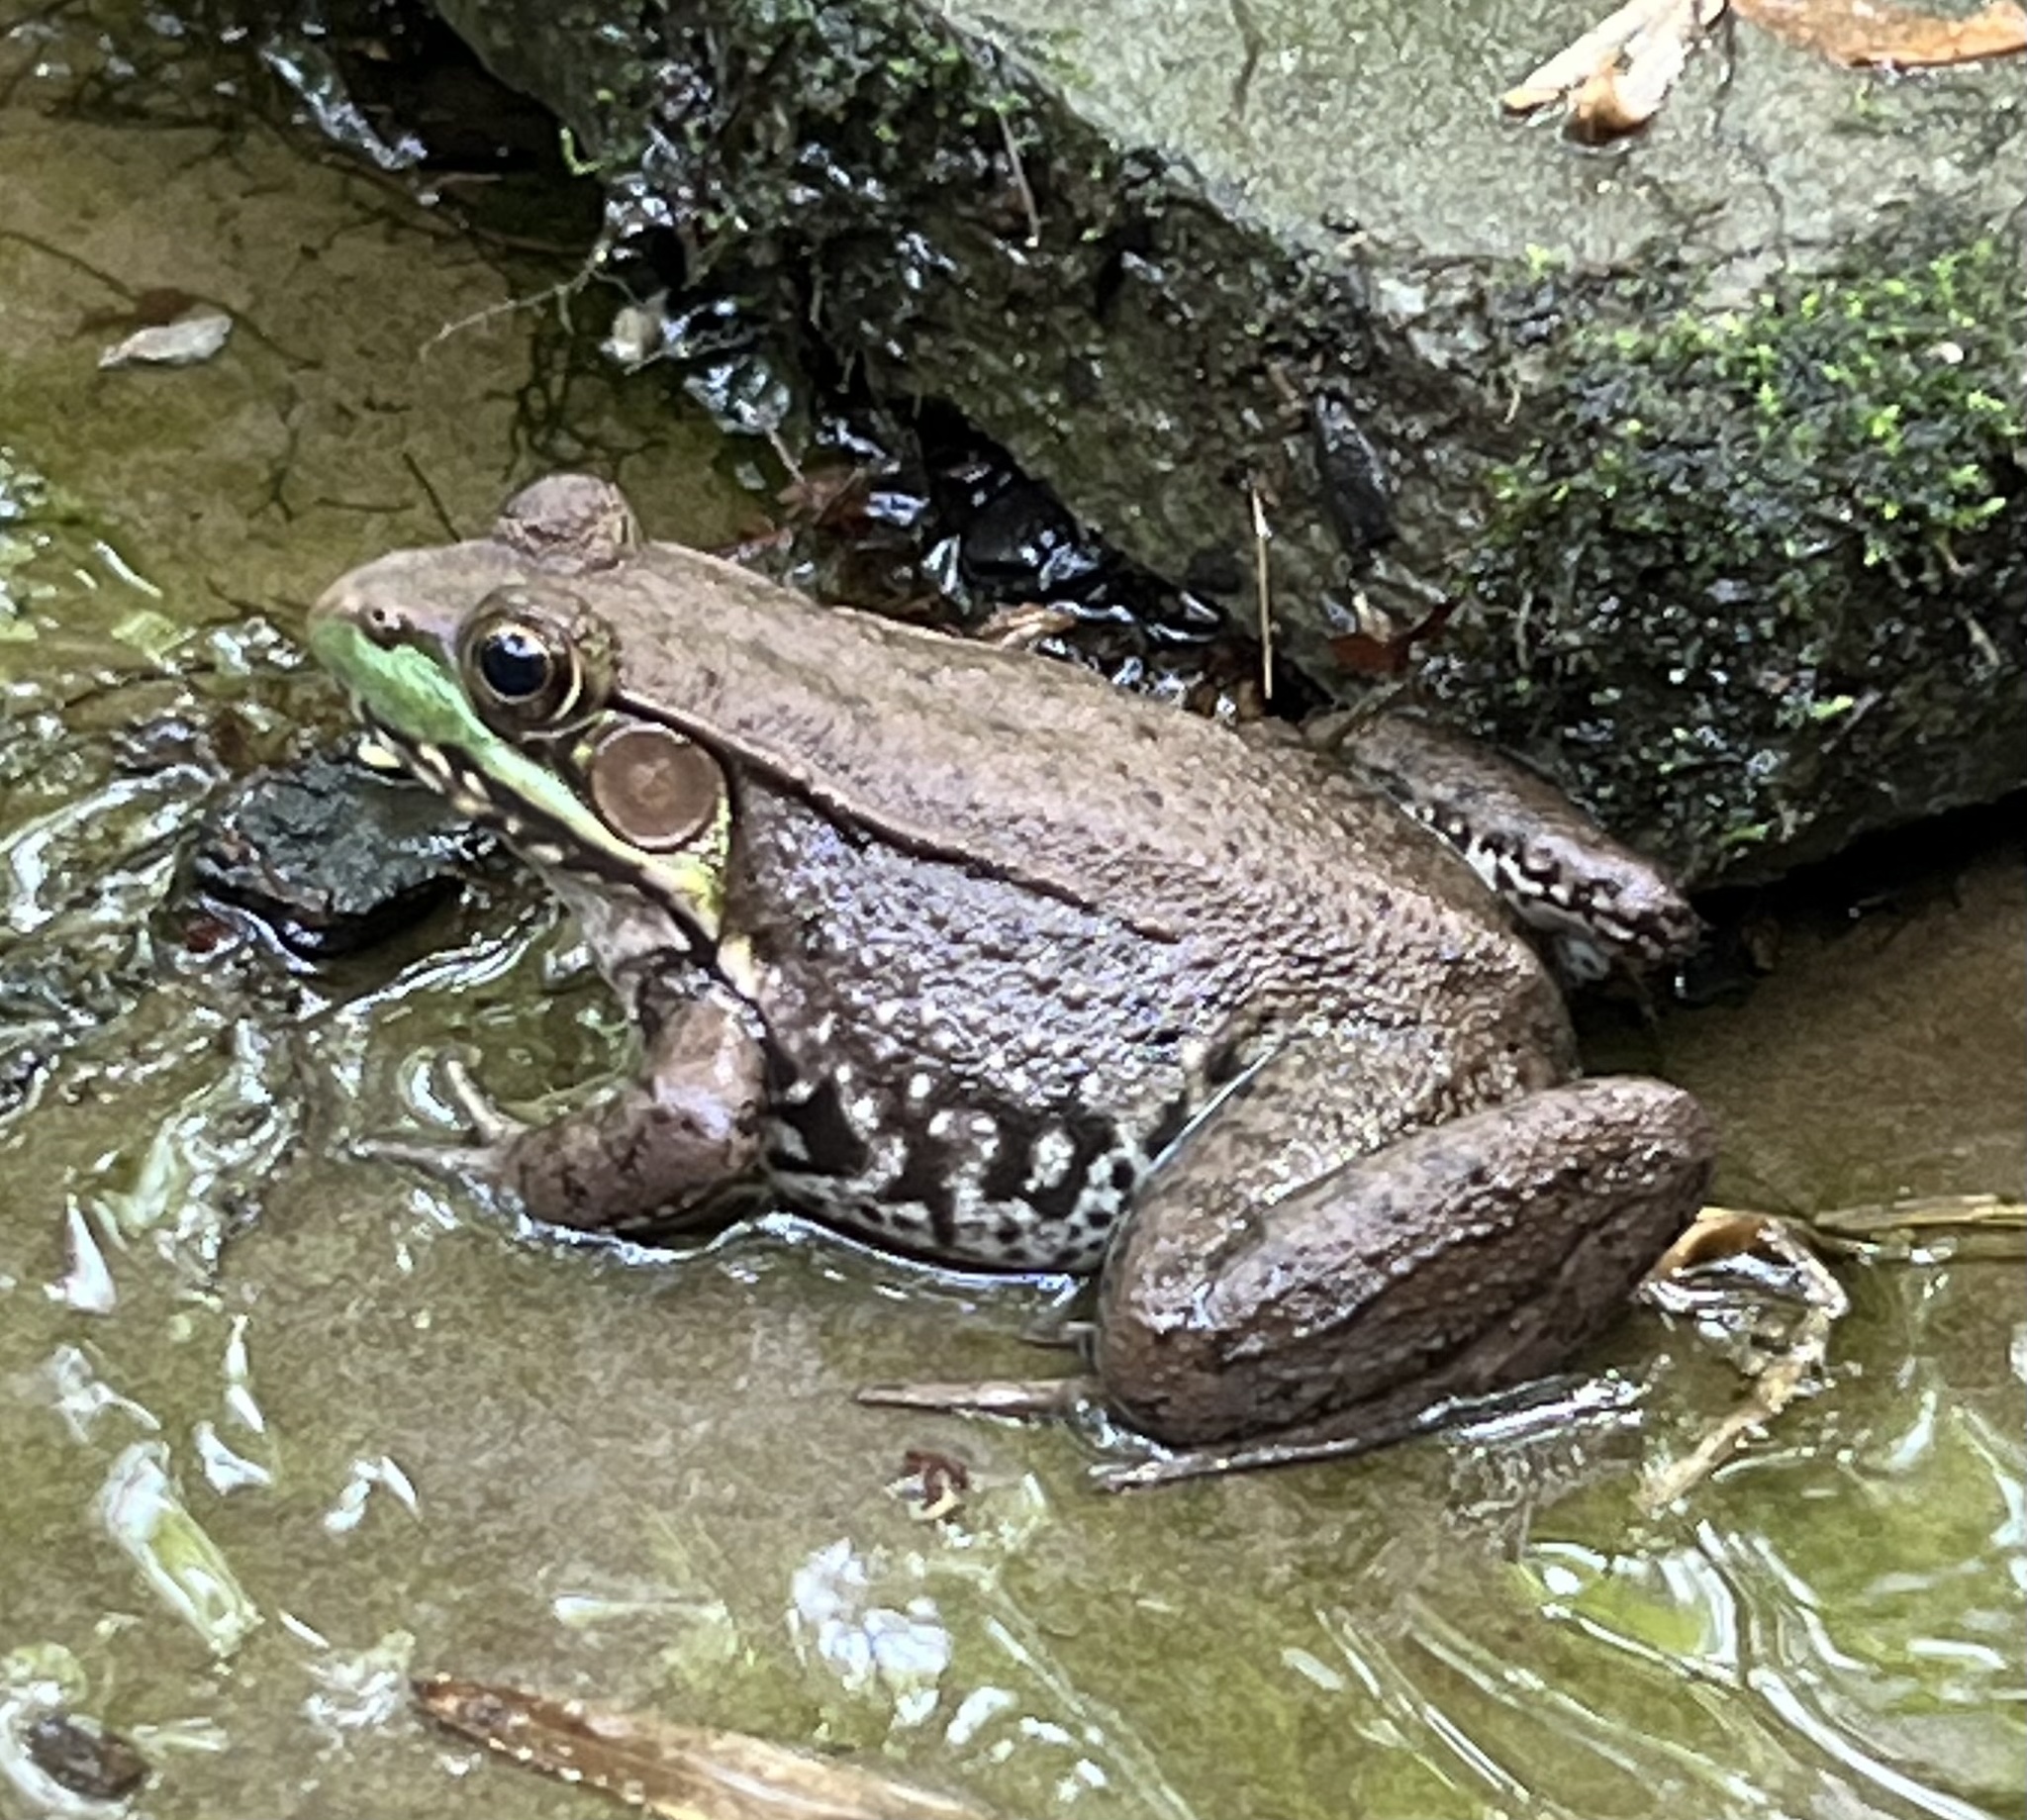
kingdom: Animalia
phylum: Chordata
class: Amphibia
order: Anura
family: Ranidae
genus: Lithobates
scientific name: Lithobates clamitans
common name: Green frog
